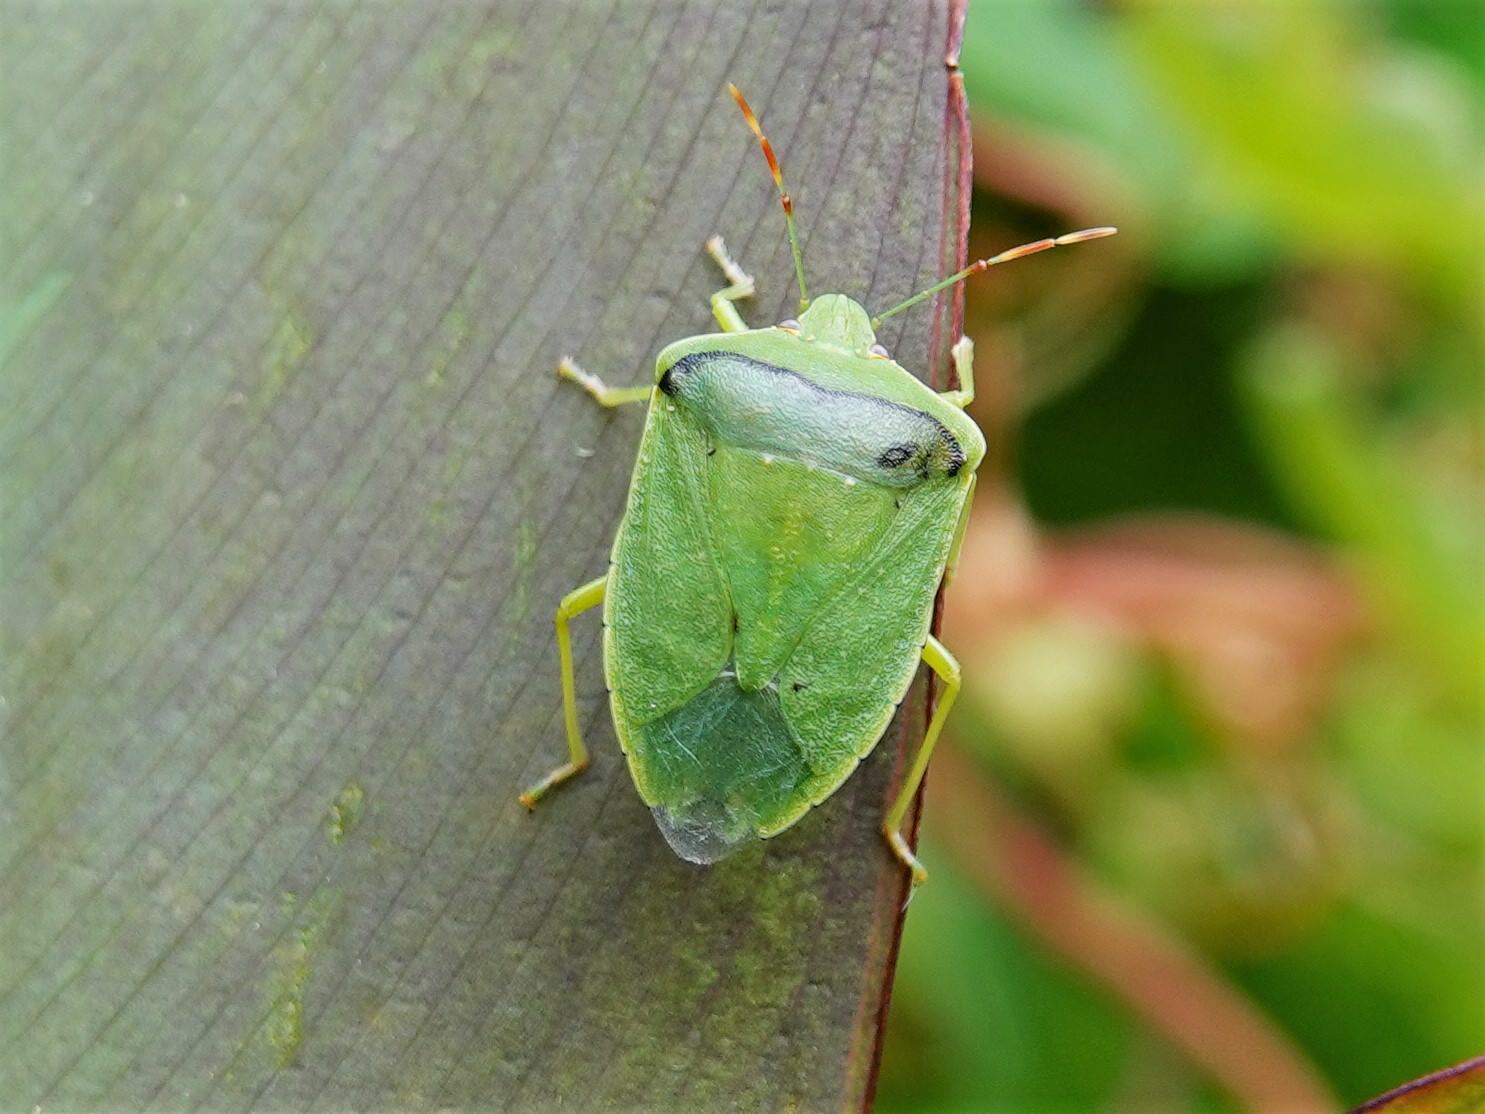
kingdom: Animalia
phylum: Arthropoda
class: Insecta
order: Hemiptera
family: Pentatomidae
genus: Nezara
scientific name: Nezara viridula
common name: Southern green stink bug
